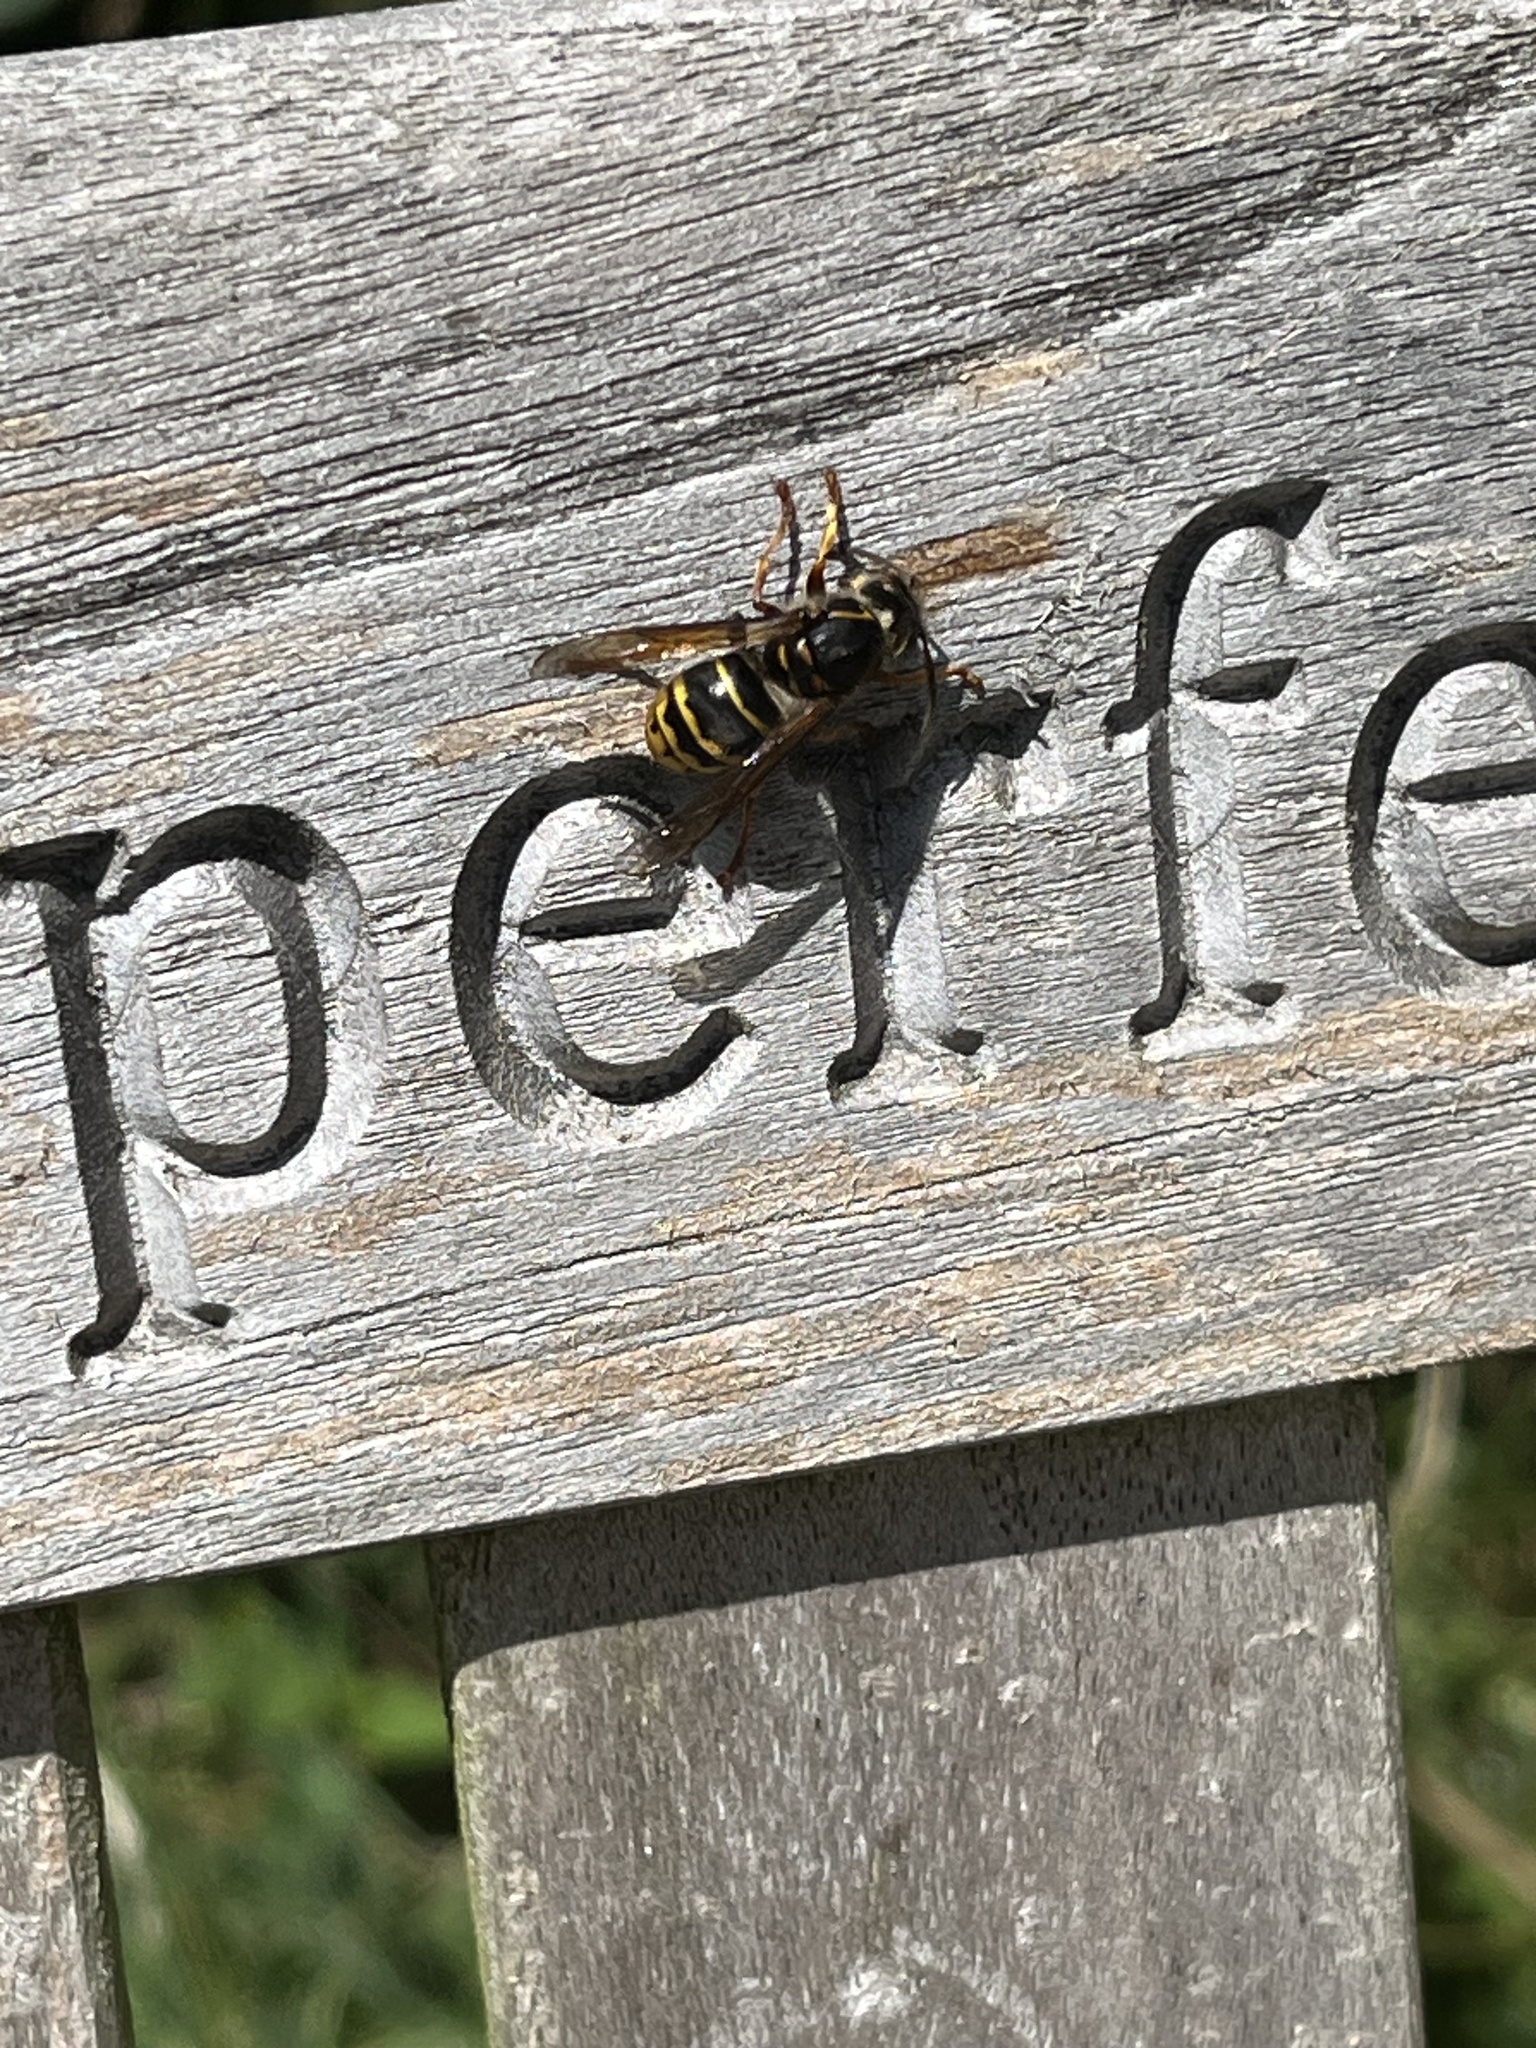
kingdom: Animalia
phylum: Arthropoda
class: Insecta
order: Hymenoptera
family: Vespidae
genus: Dolichovespula
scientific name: Dolichovespula media
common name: Median wasp
